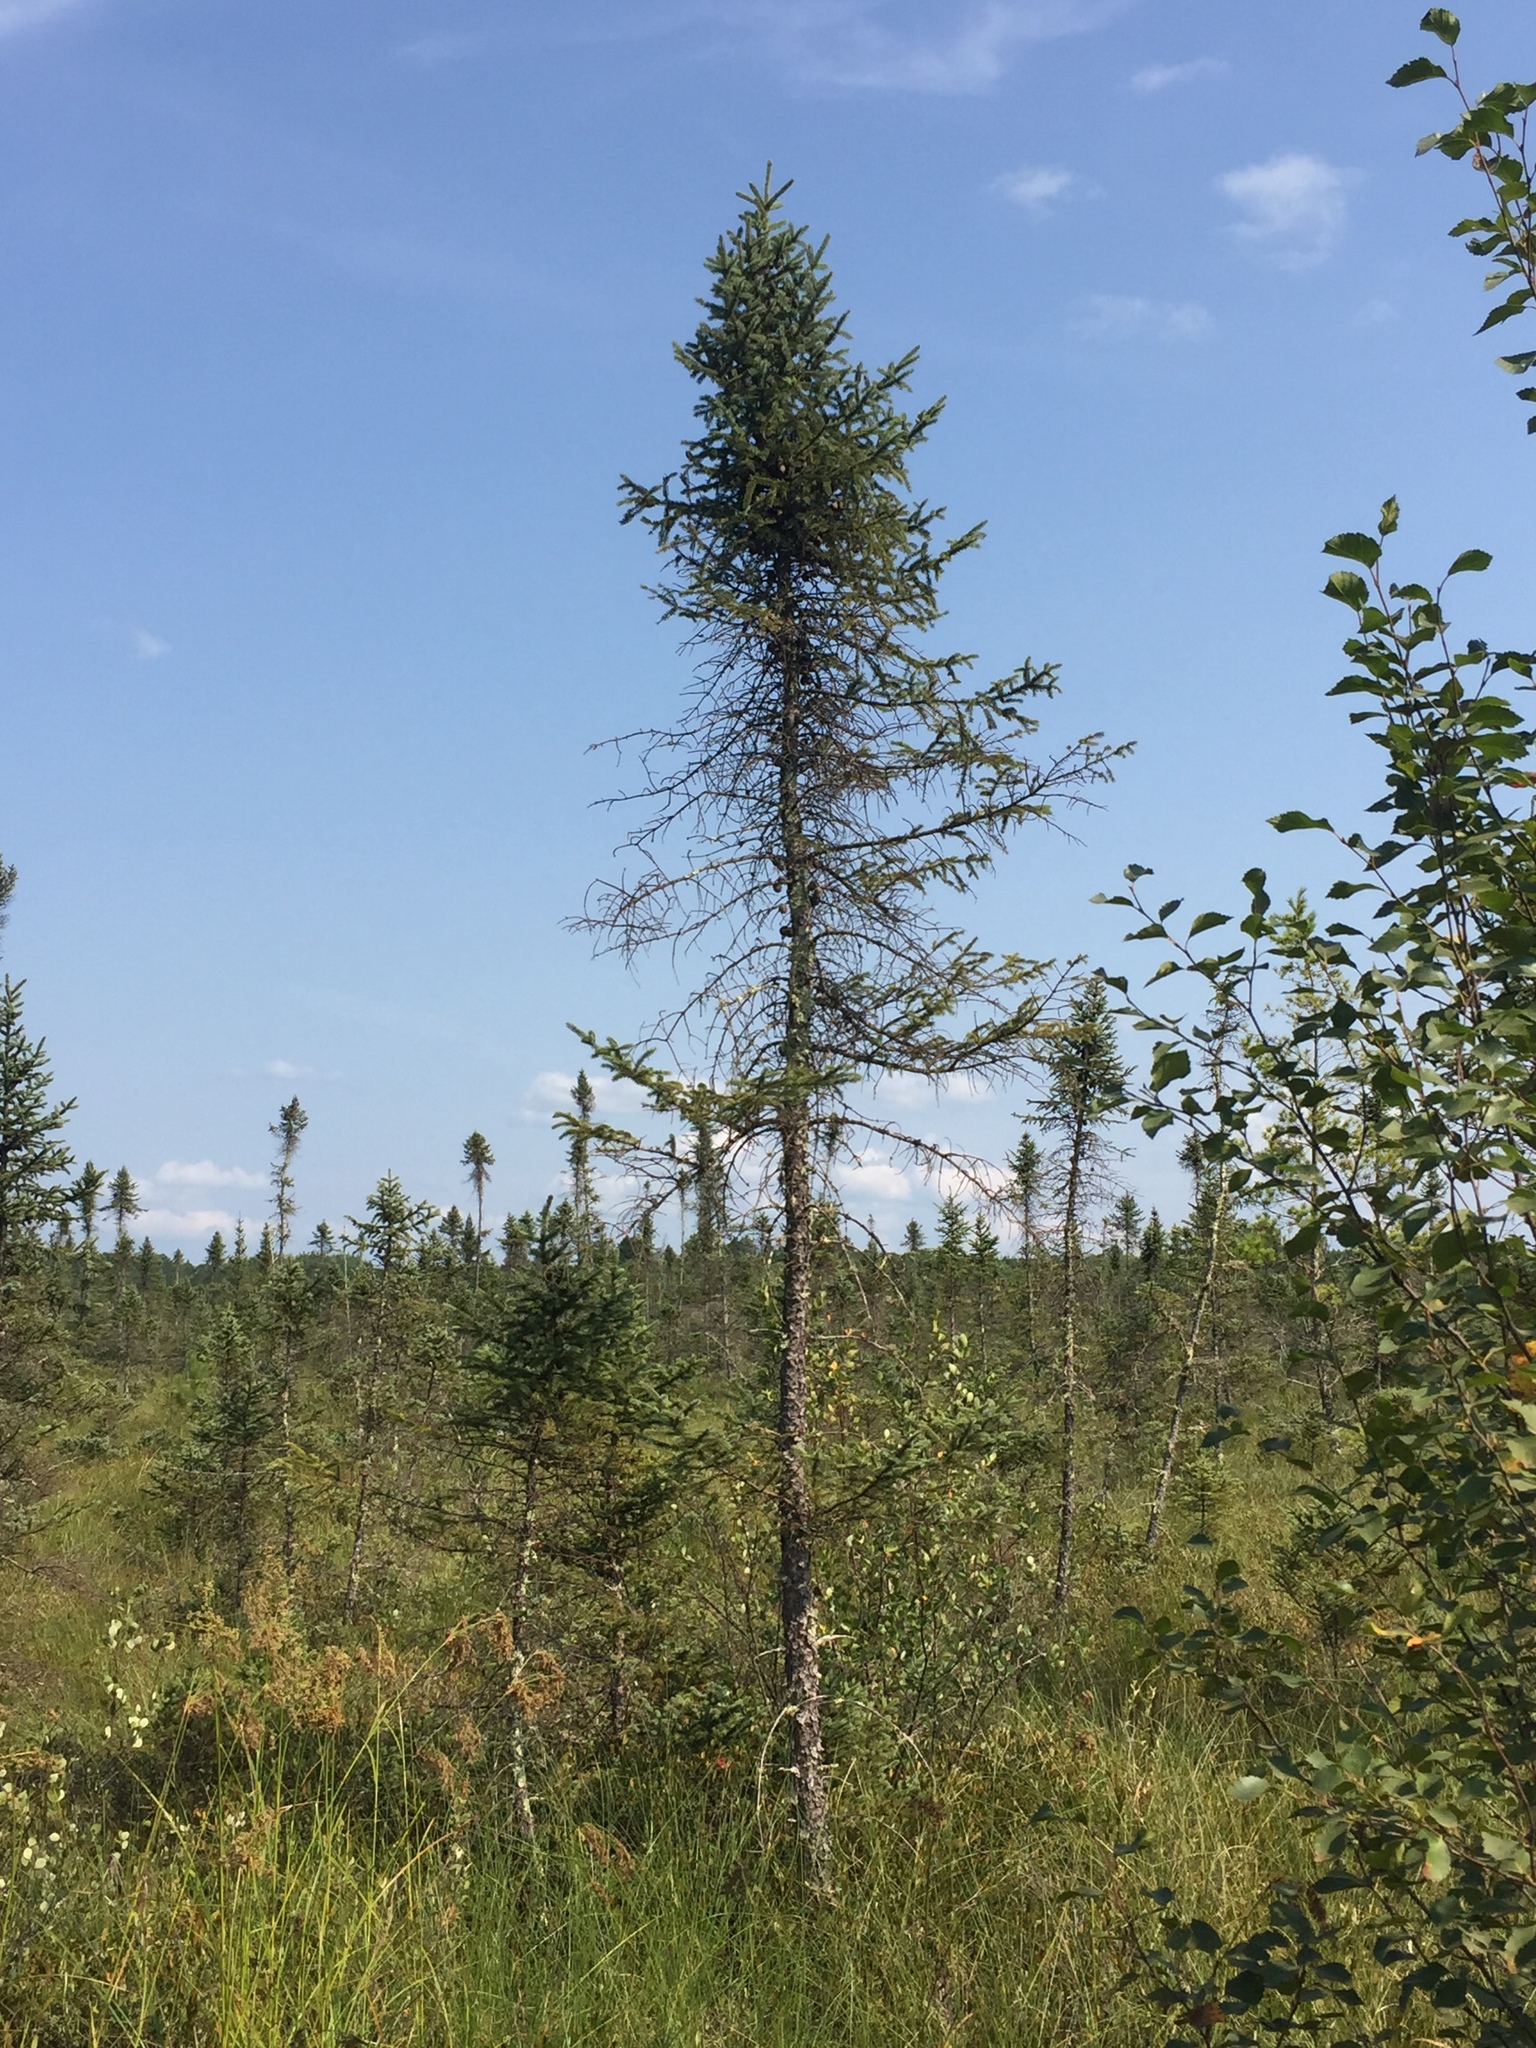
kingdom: Plantae
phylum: Tracheophyta
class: Pinopsida
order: Pinales
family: Pinaceae
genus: Picea
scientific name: Picea mariana
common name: Black spruce
